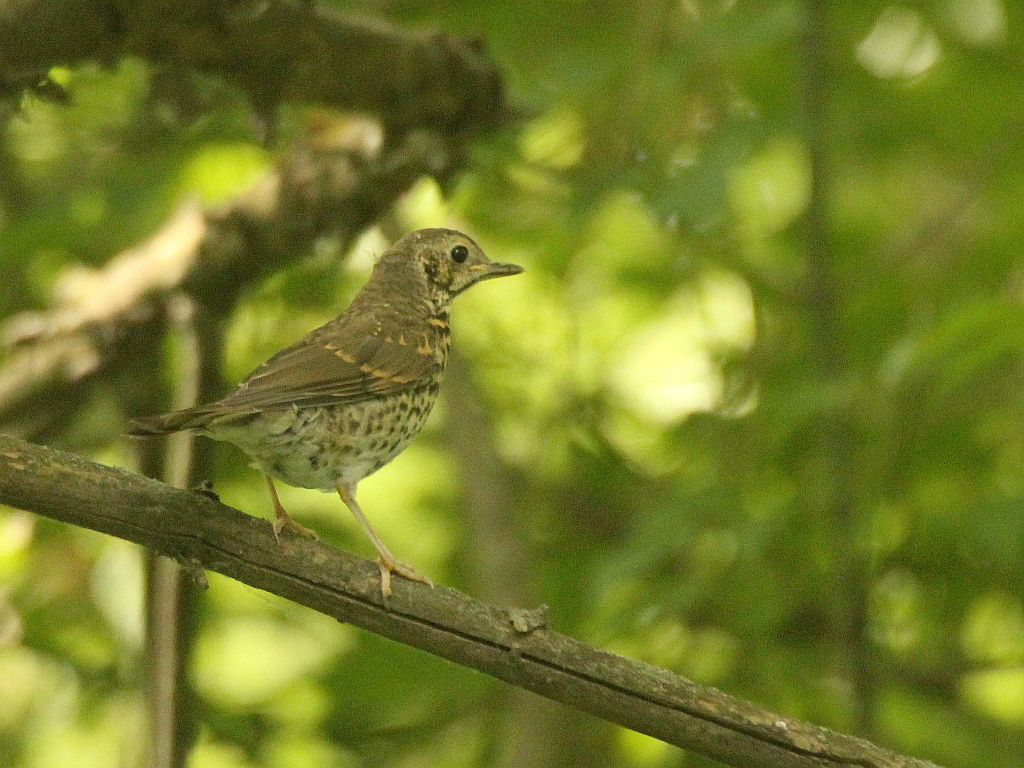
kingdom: Animalia
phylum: Chordata
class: Aves
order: Passeriformes
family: Turdidae
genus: Turdus
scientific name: Turdus philomelos
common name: Song thrush
